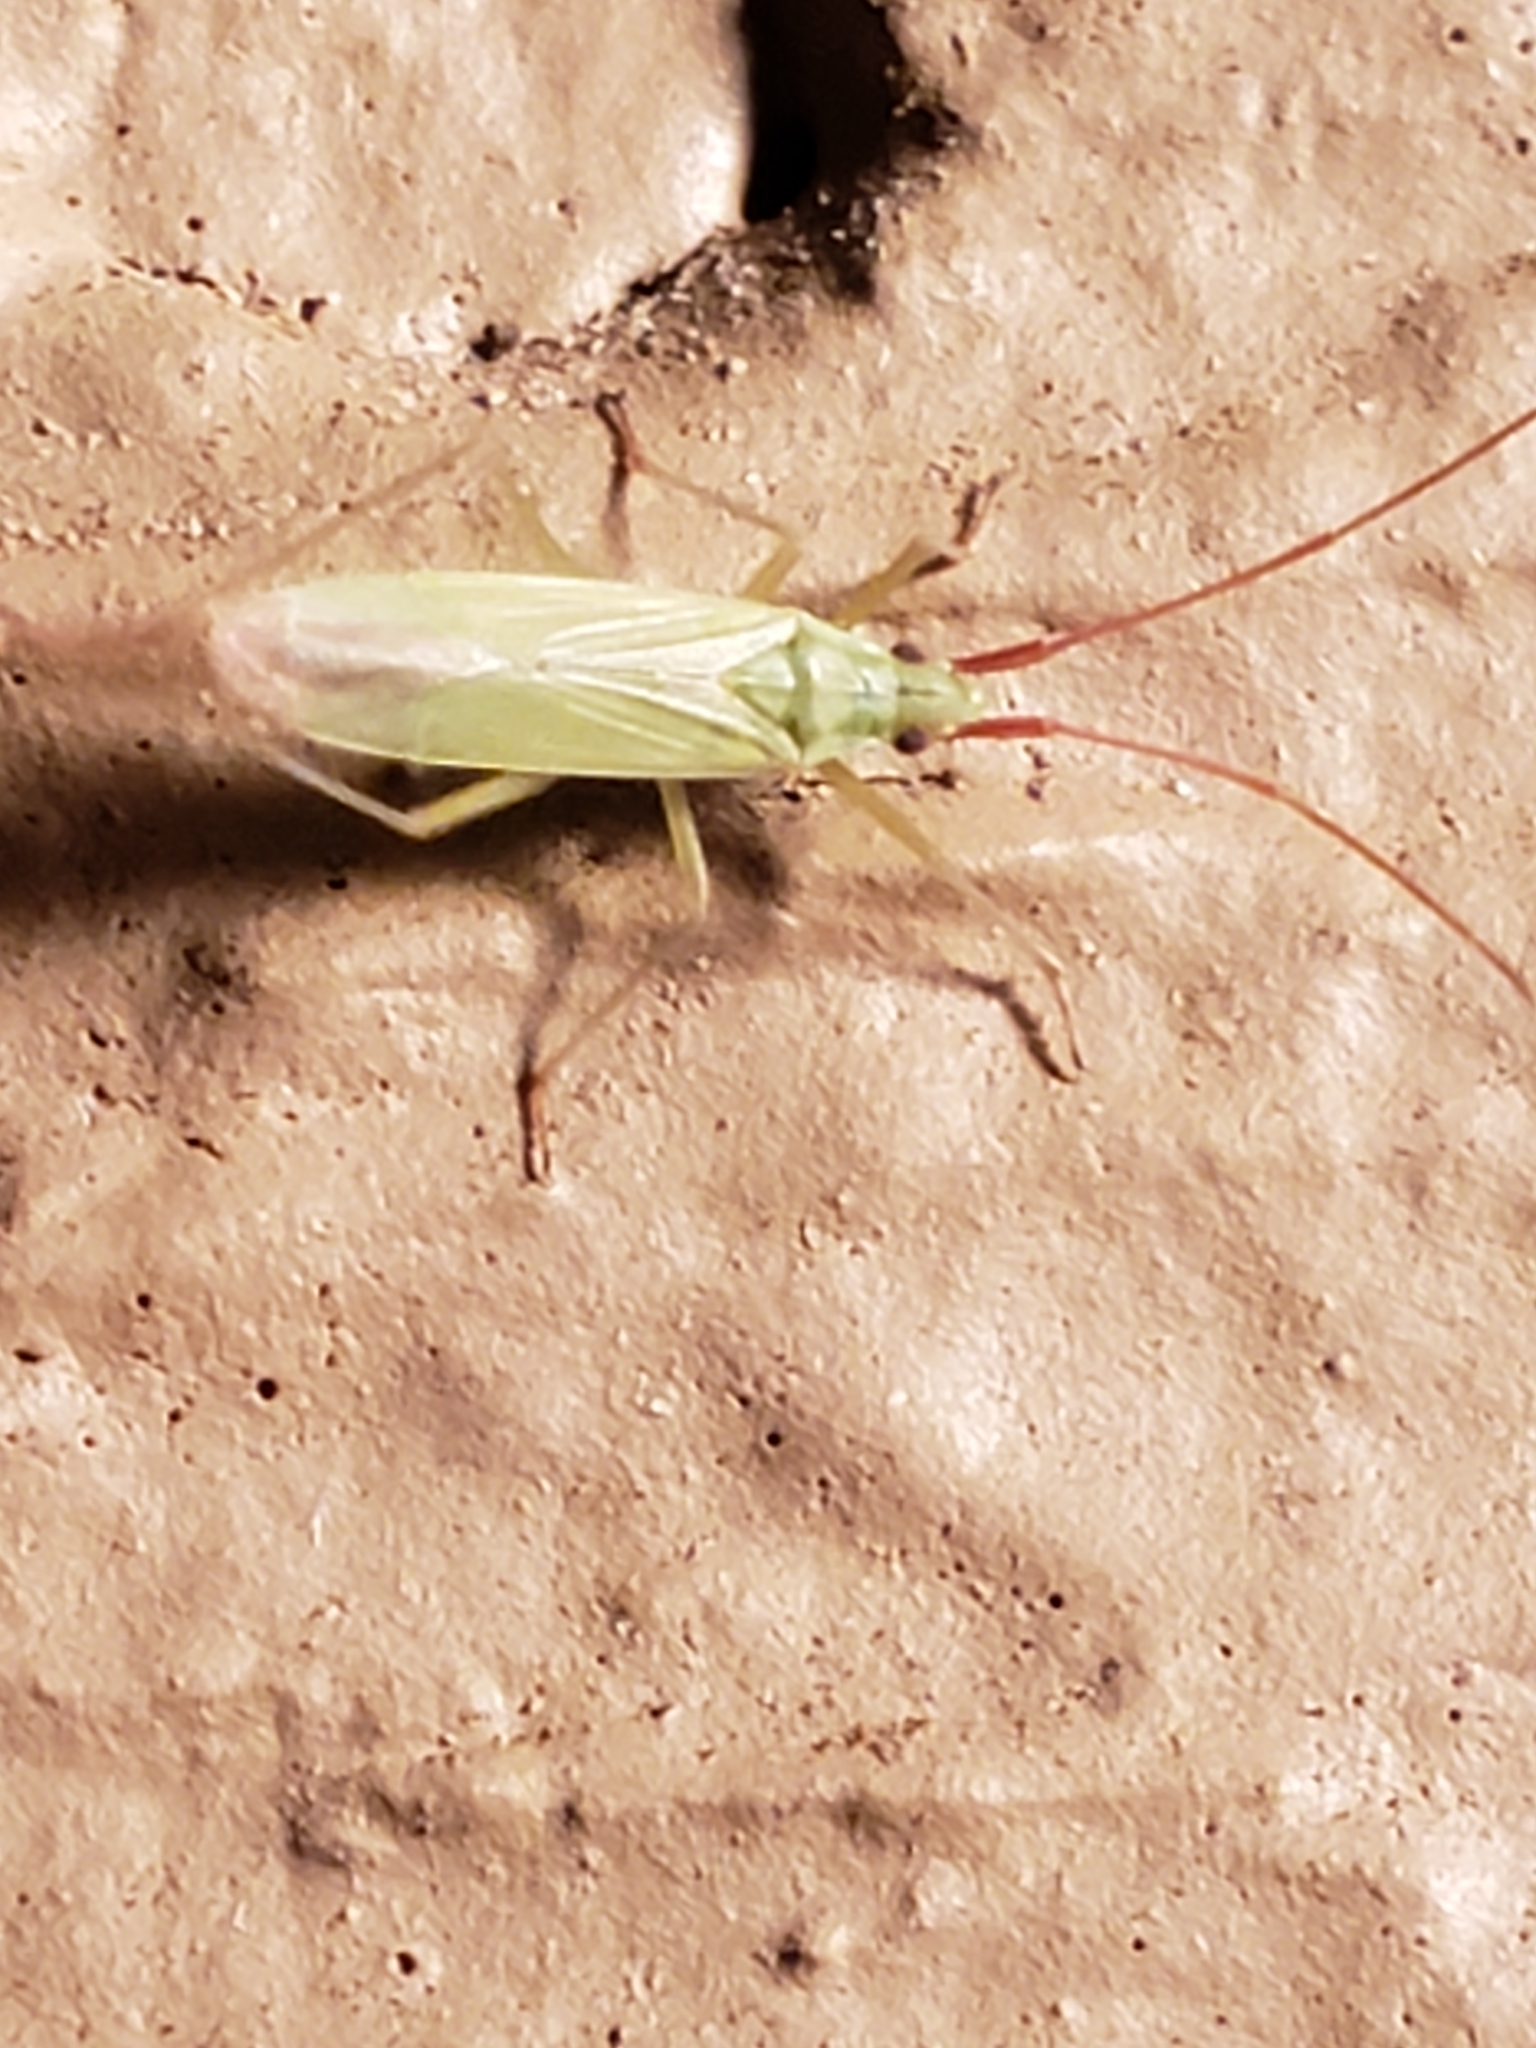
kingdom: Animalia
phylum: Arthropoda
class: Insecta
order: Hemiptera
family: Miridae
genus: Trigonotylus
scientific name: Trigonotylus caelestialium
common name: Rice leaf bug
